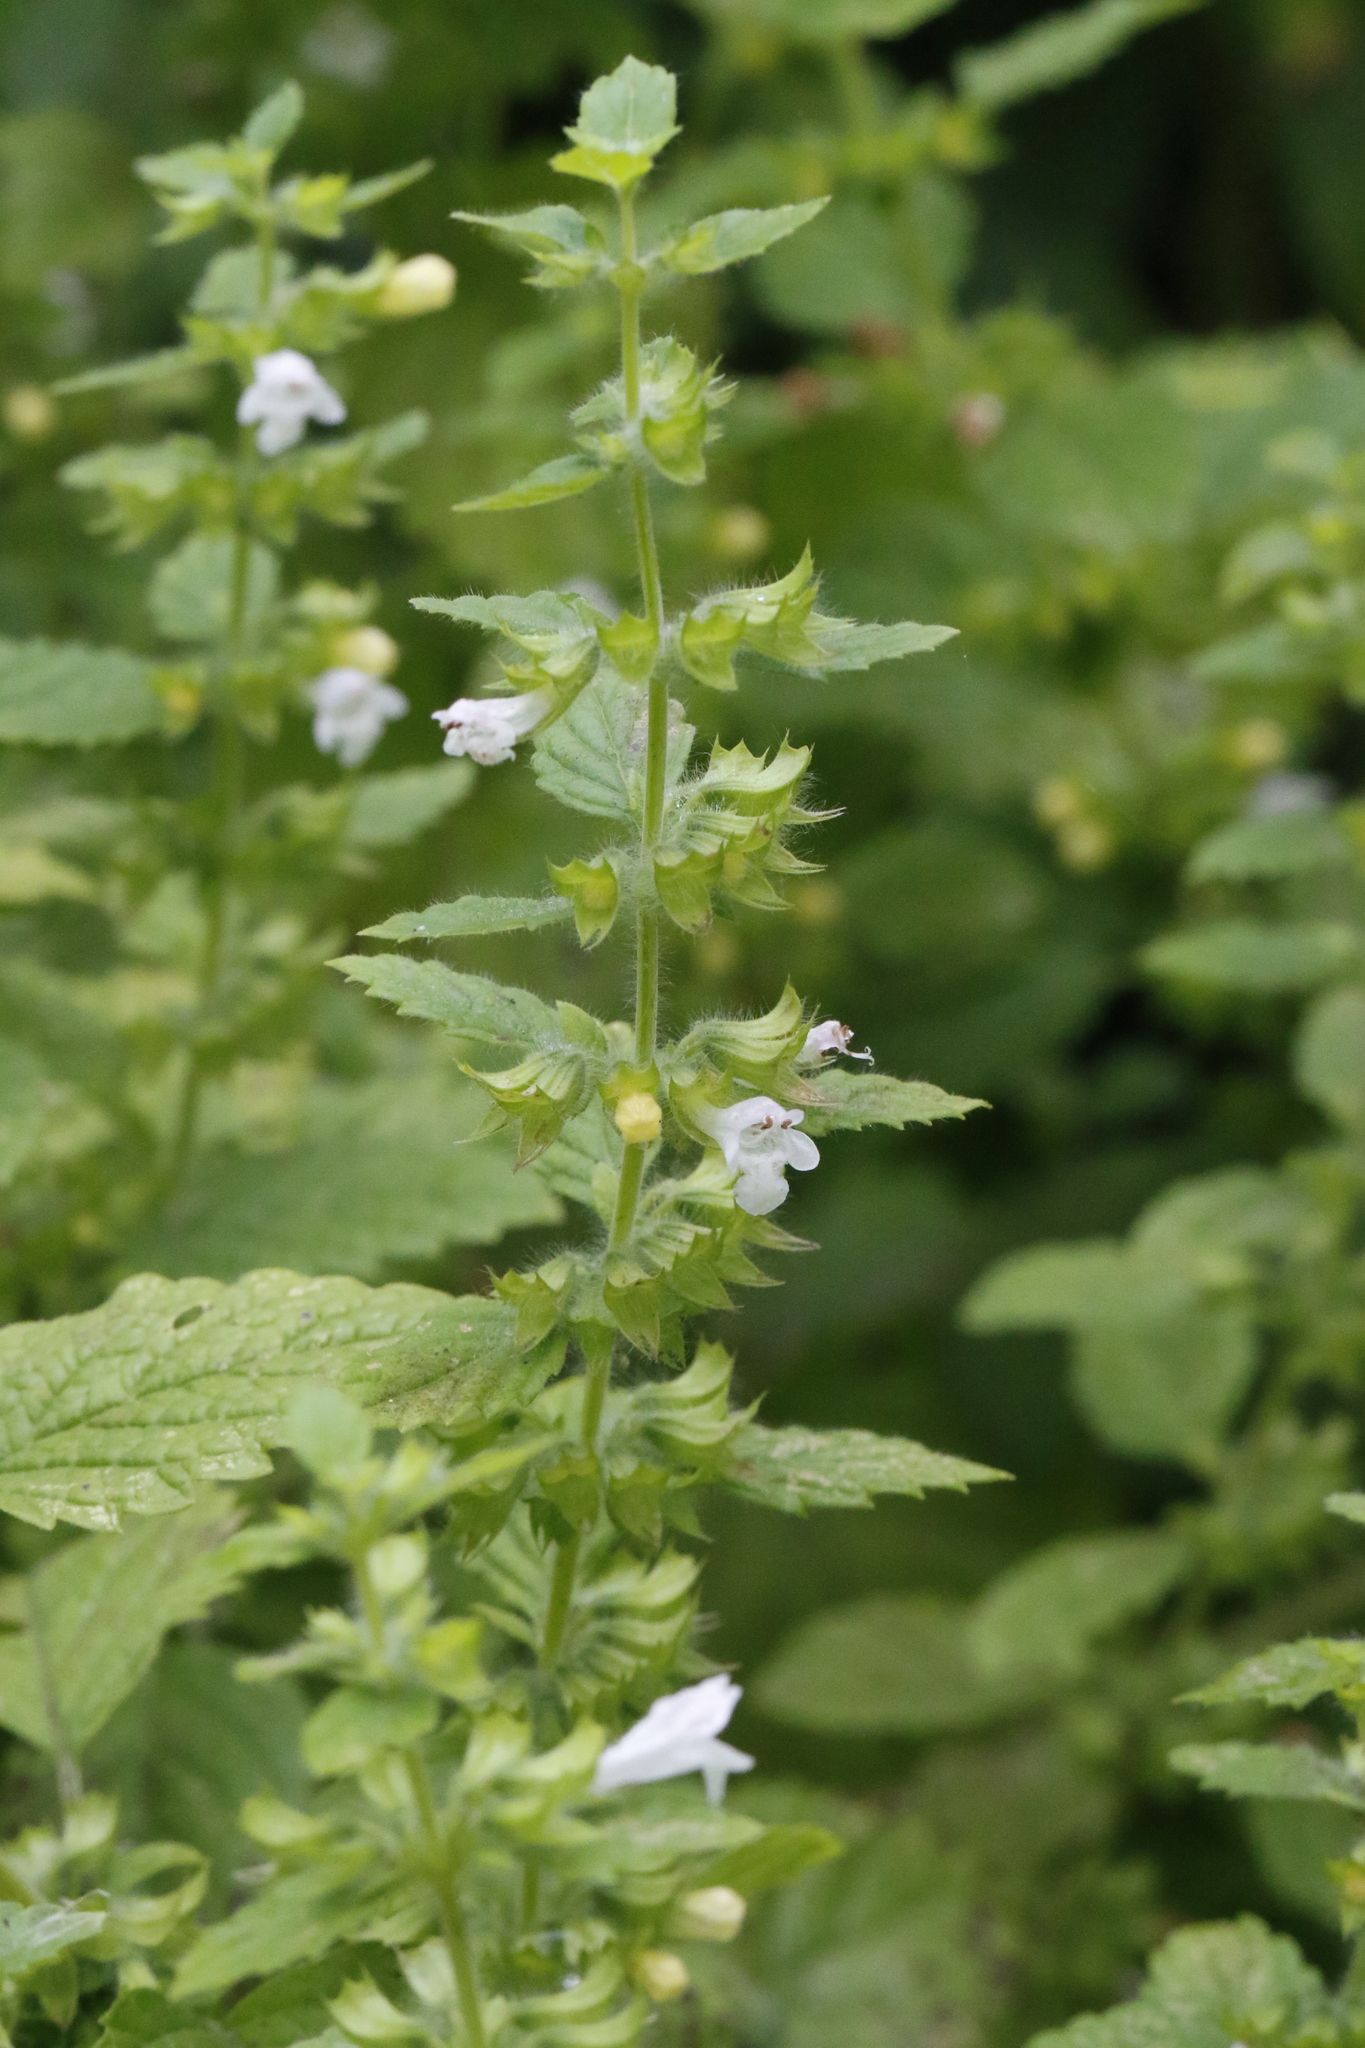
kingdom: Plantae
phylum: Tracheophyta
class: Magnoliopsida
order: Lamiales
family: Lamiaceae
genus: Melissa
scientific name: Melissa officinalis
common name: Balm
